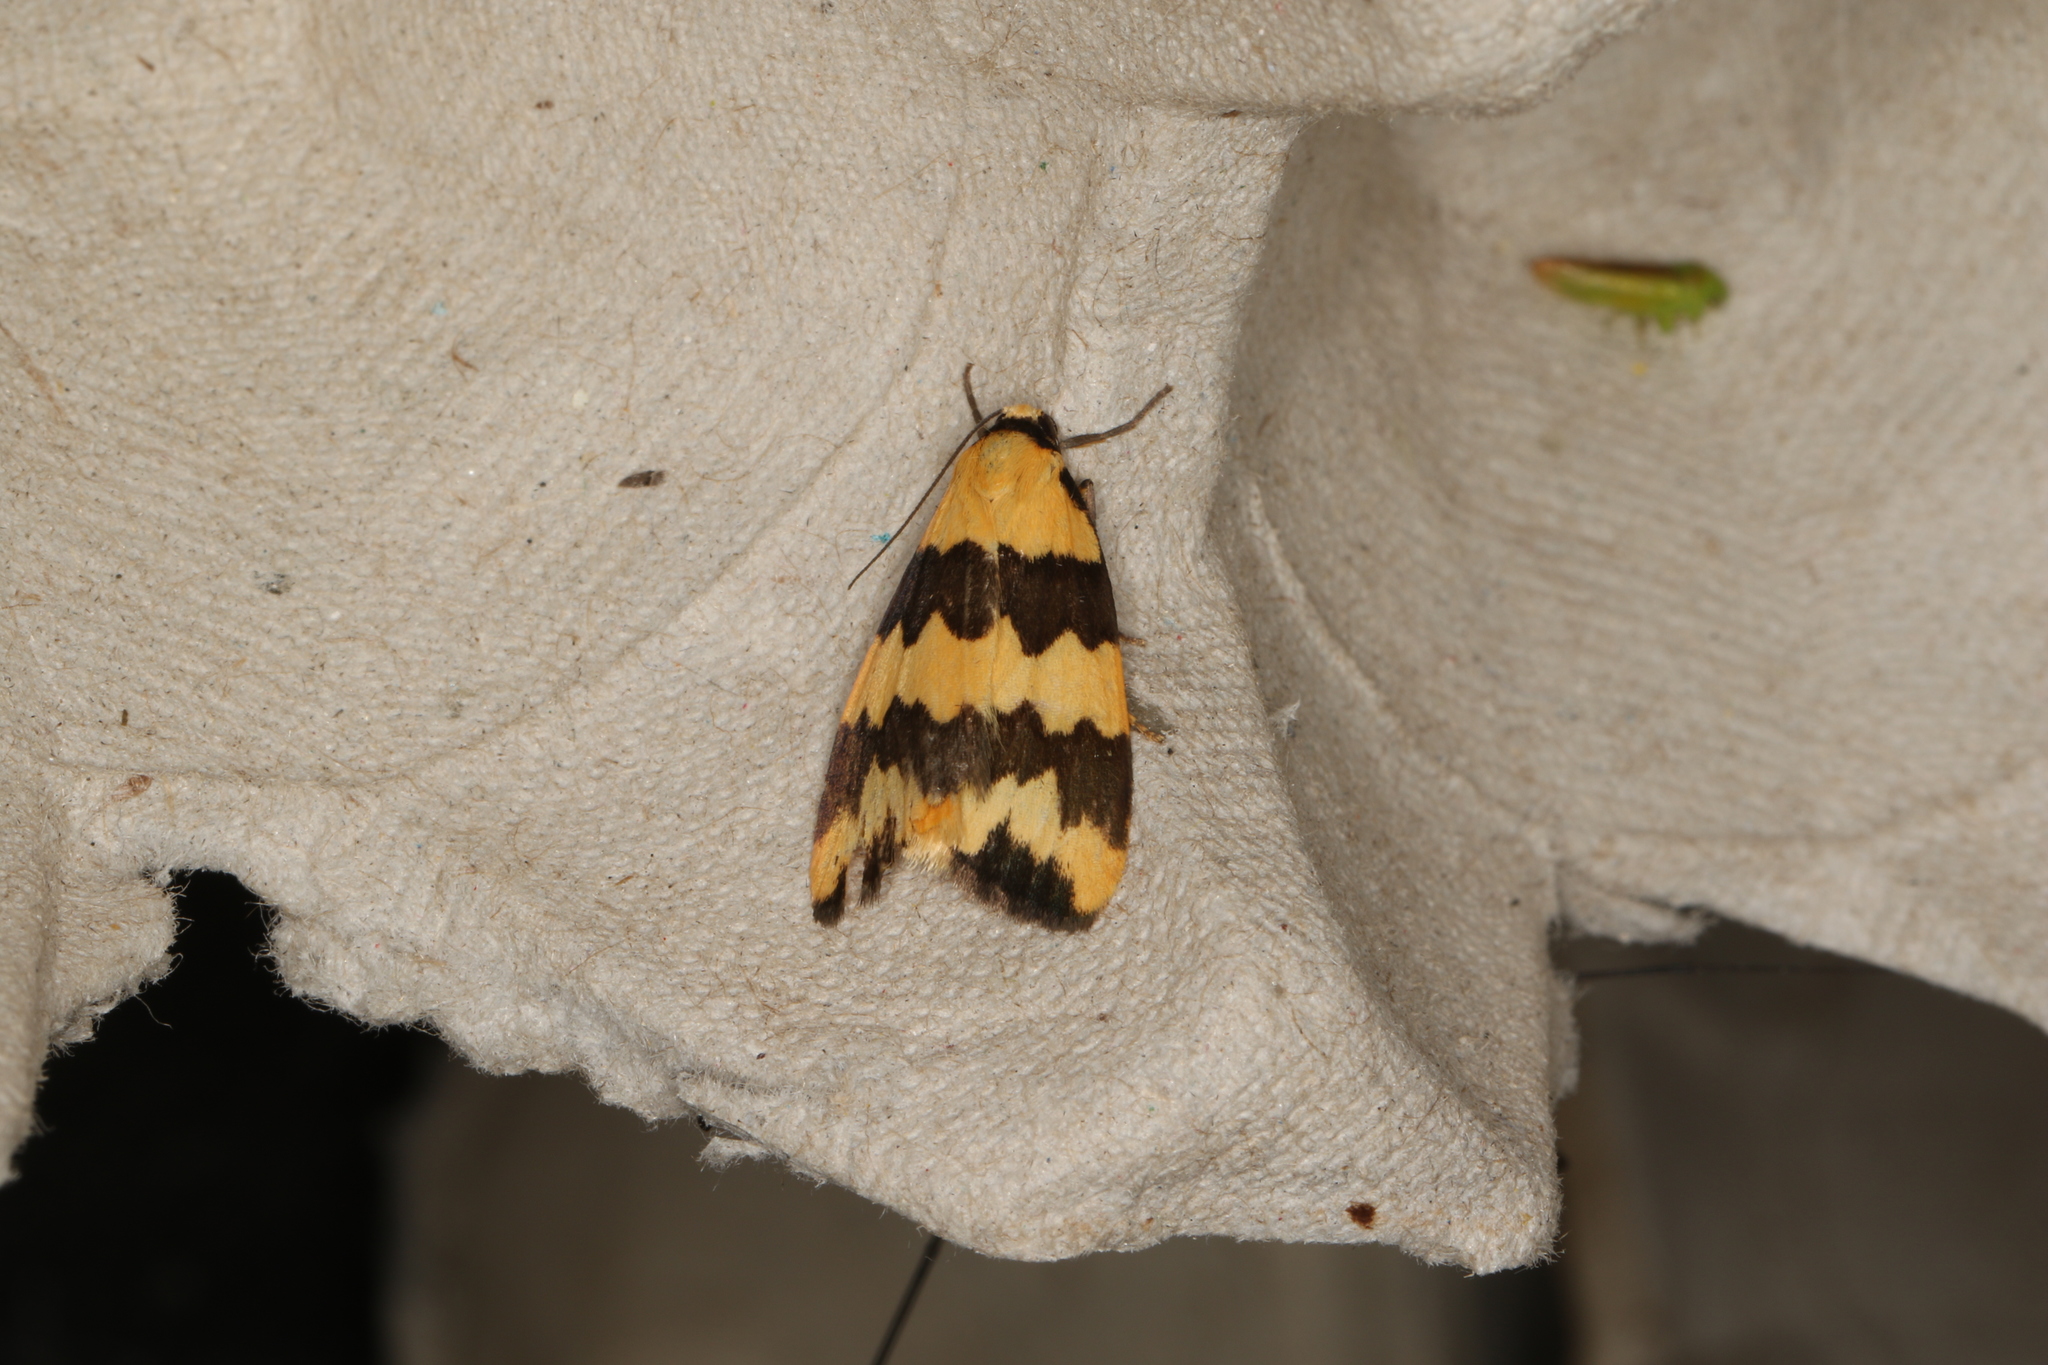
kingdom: Animalia
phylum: Arthropoda
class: Insecta
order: Lepidoptera
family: Erebidae
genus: Termessa
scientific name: Termessa laeta
